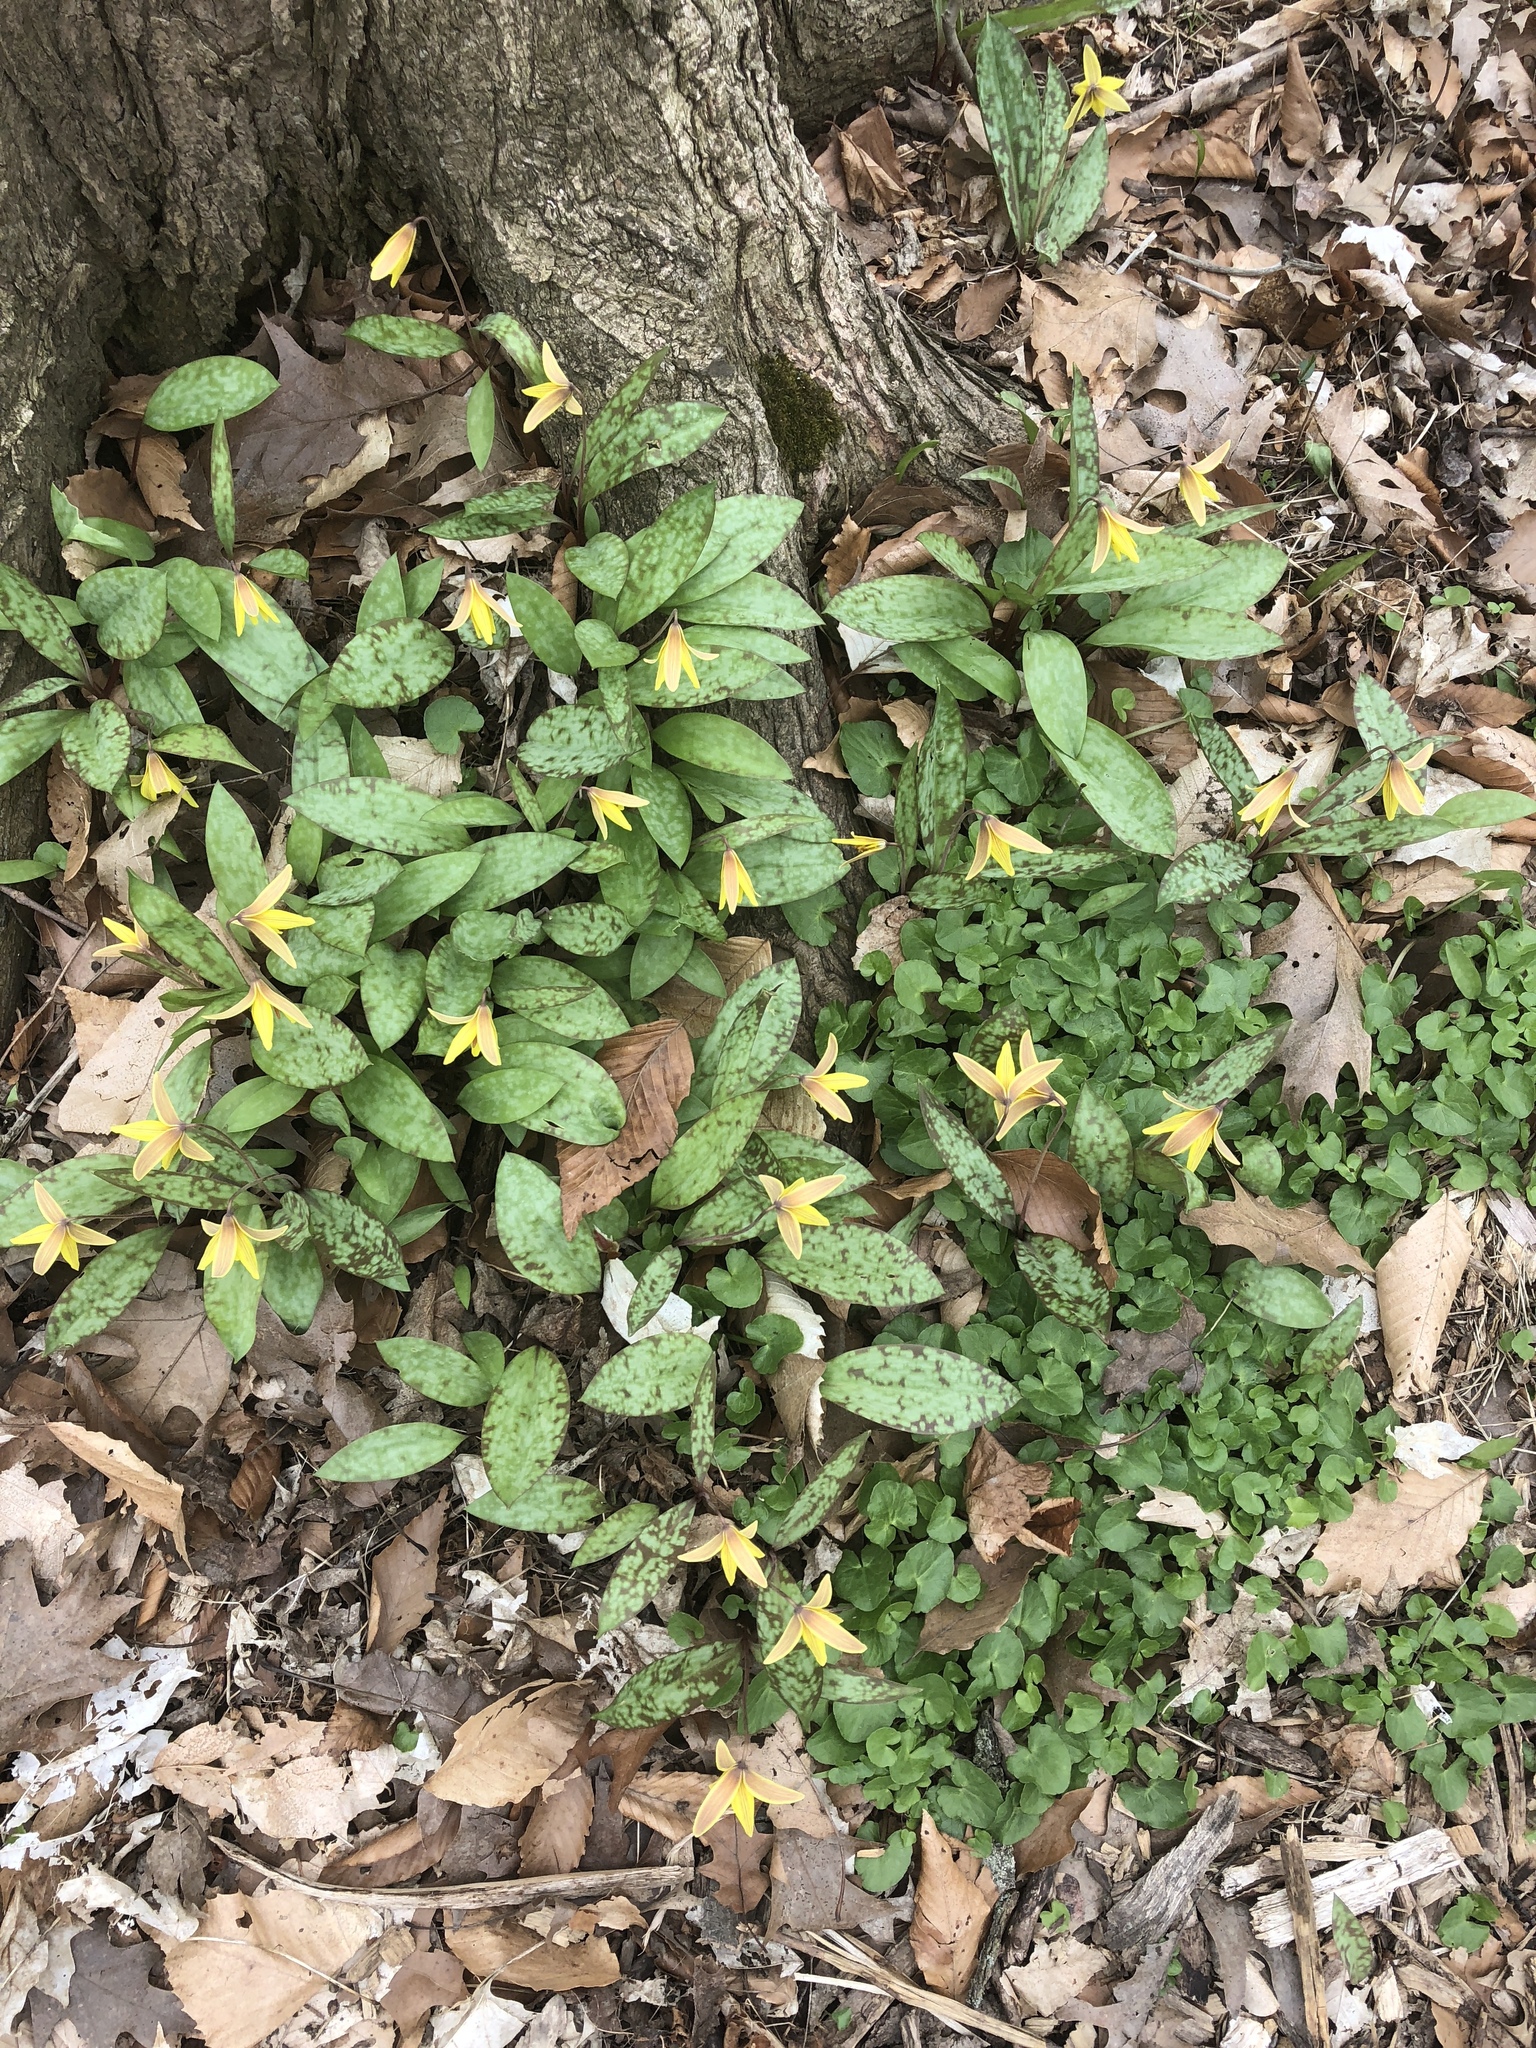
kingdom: Plantae
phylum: Tracheophyta
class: Liliopsida
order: Liliales
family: Liliaceae
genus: Erythronium
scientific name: Erythronium americanum
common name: Yellow adder's-tongue
